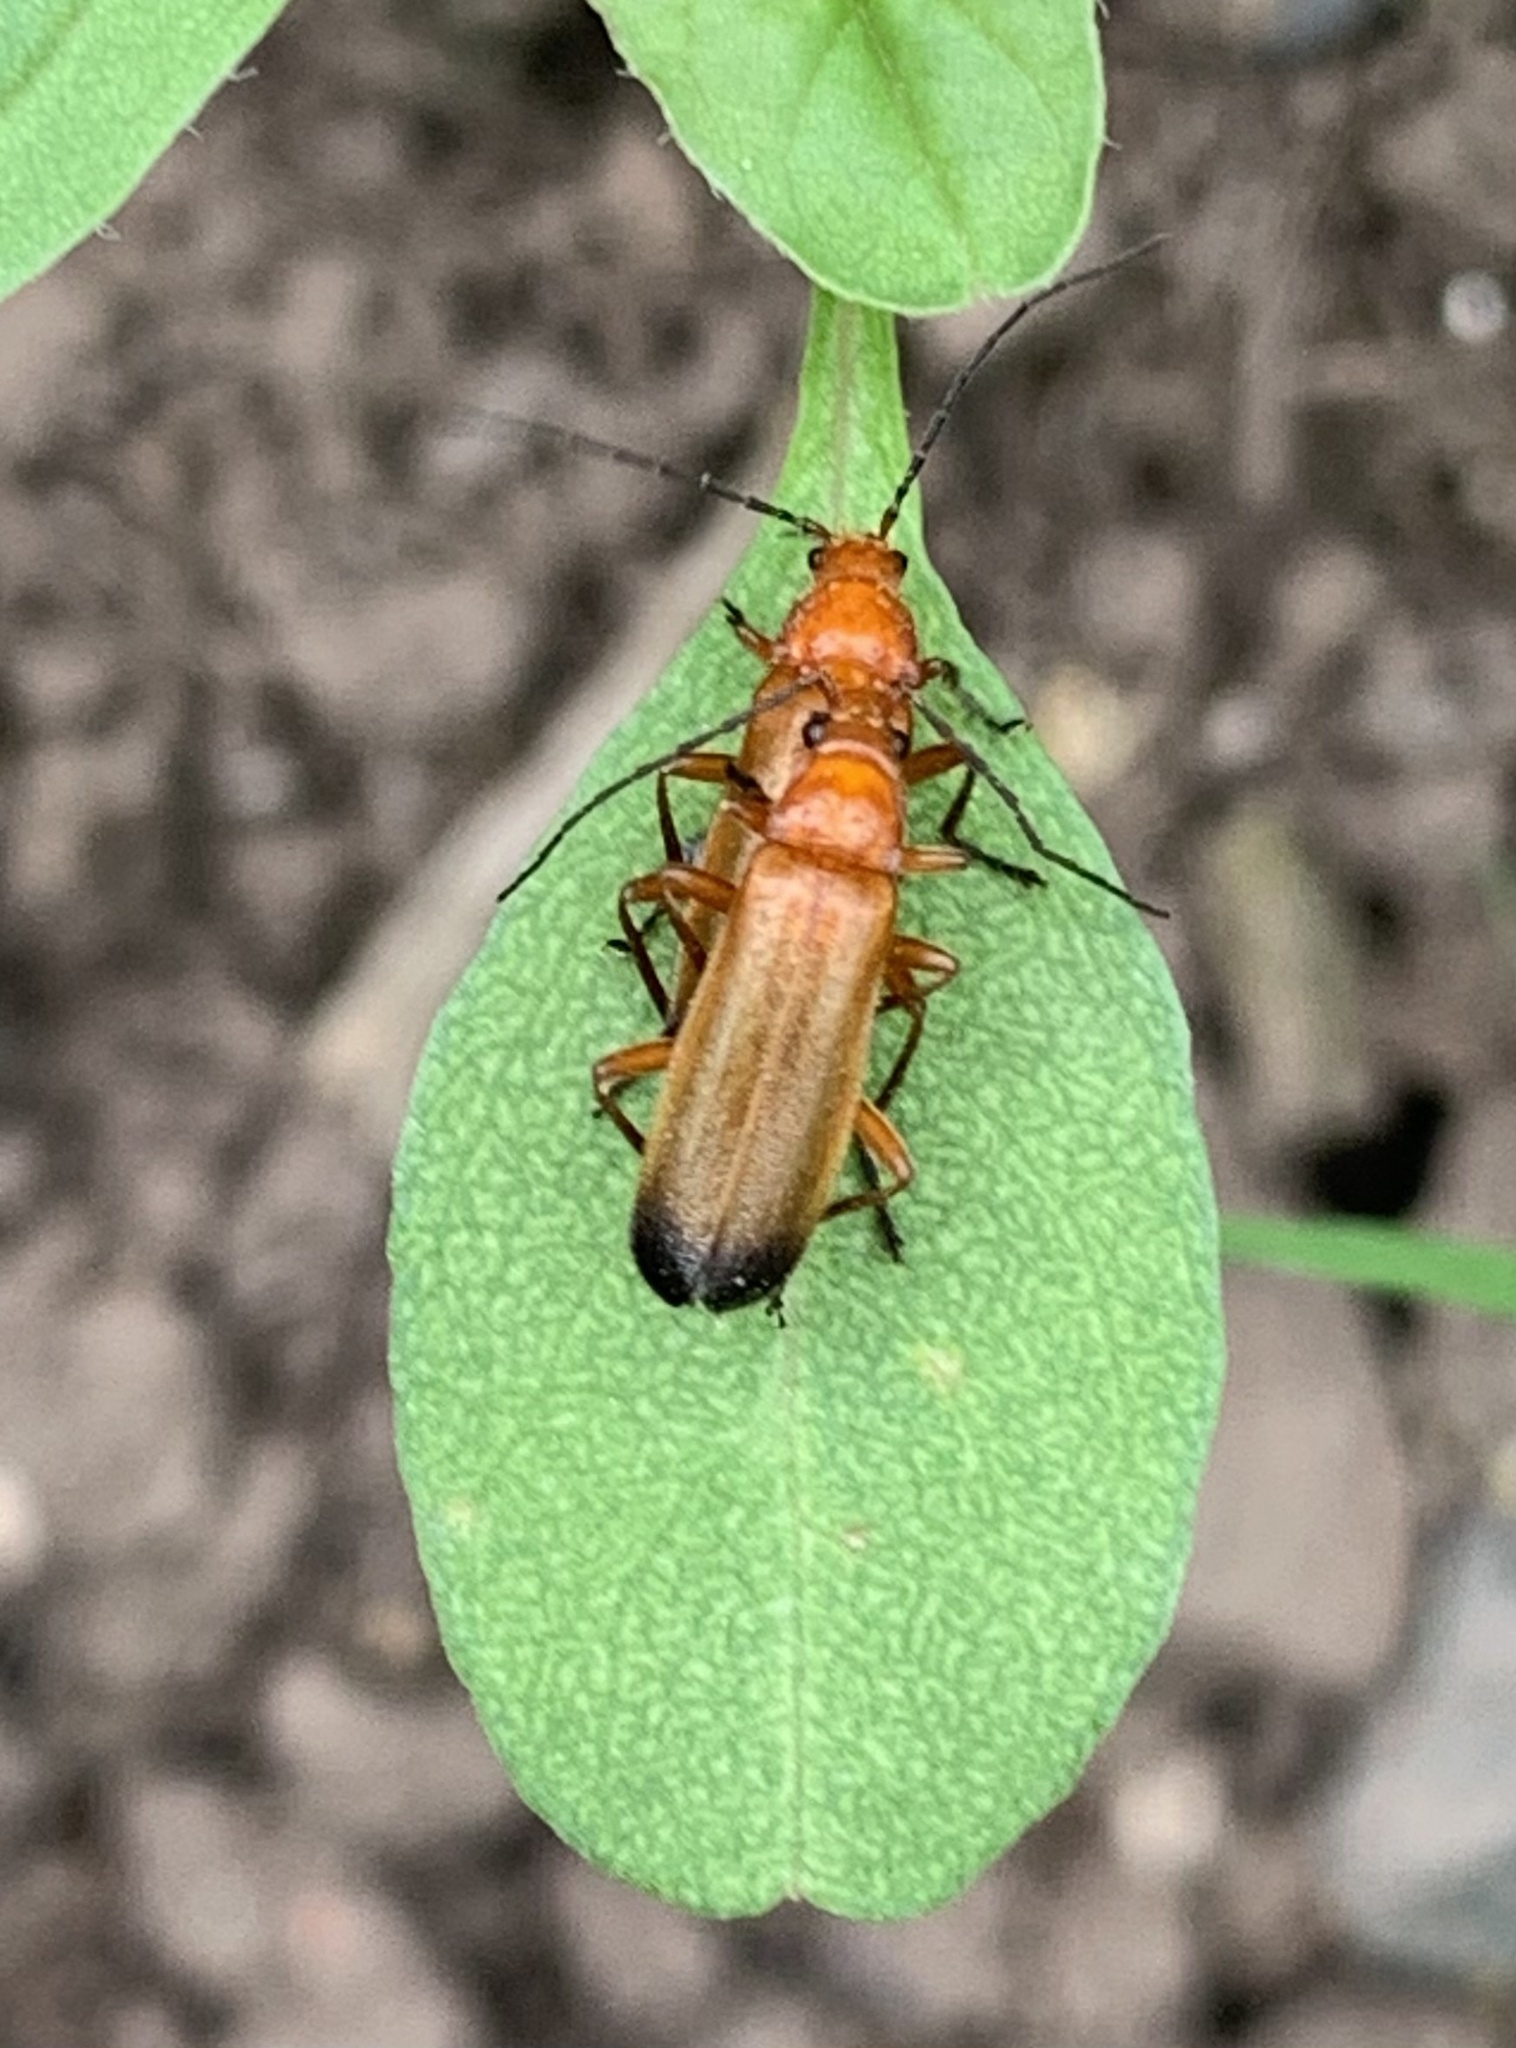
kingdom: Animalia
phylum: Arthropoda
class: Insecta
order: Coleoptera
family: Cantharidae
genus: Rhagonycha
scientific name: Rhagonycha fulva
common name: Common red soldier beetle
